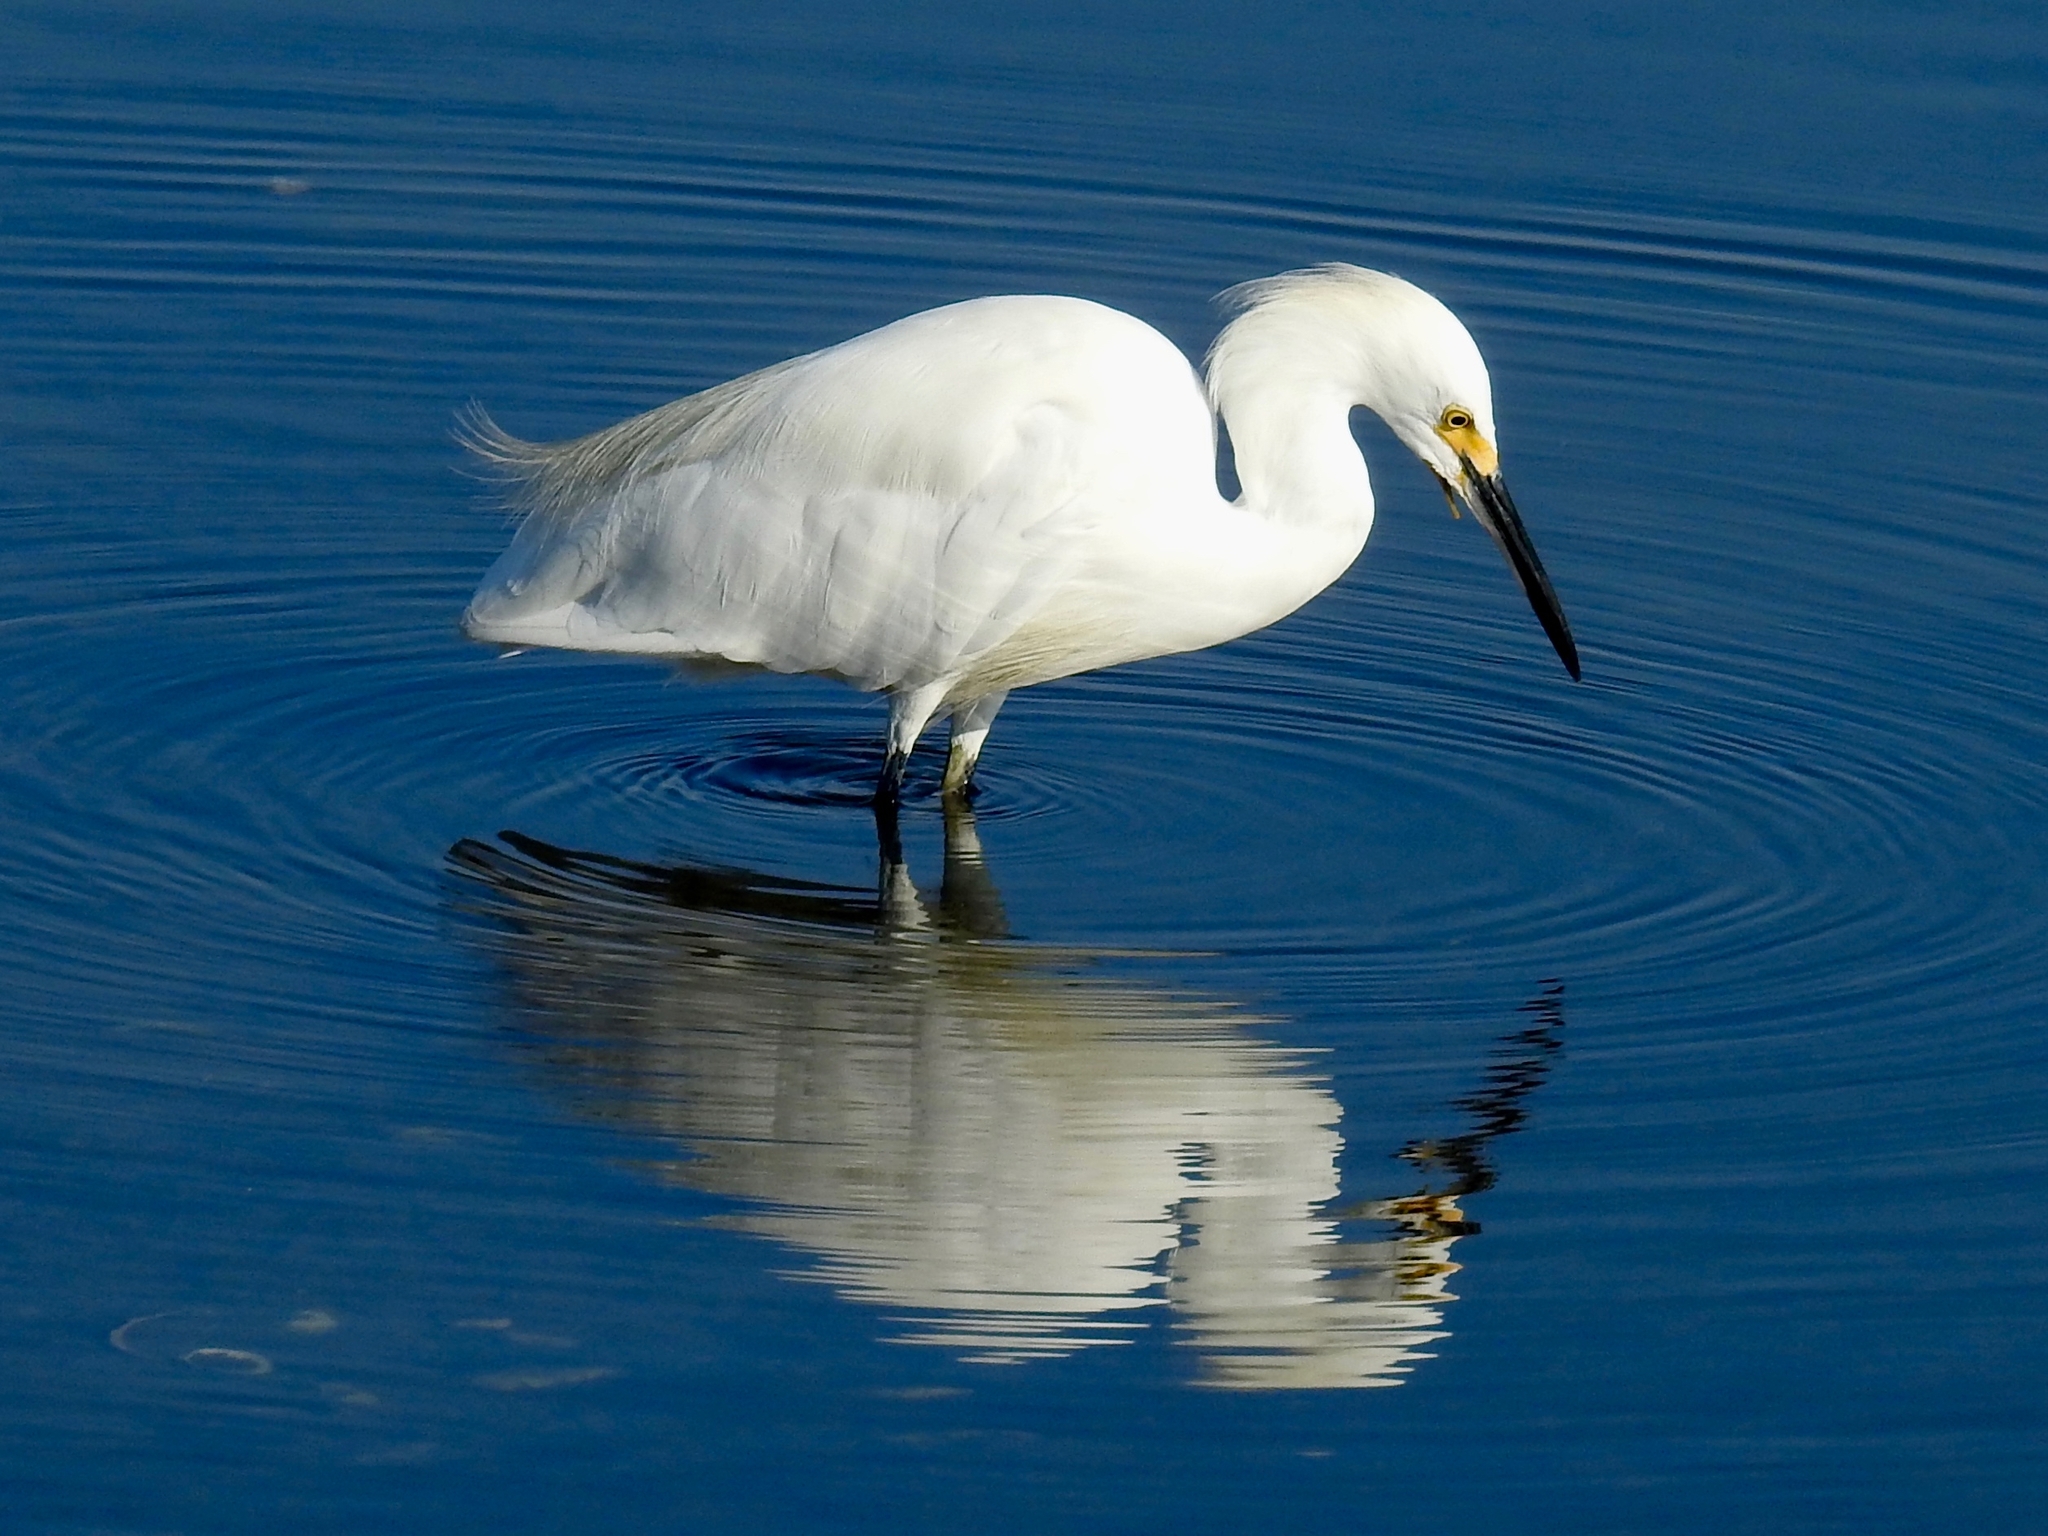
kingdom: Animalia
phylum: Chordata
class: Aves
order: Pelecaniformes
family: Ardeidae
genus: Egretta
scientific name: Egretta thula
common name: Snowy egret
